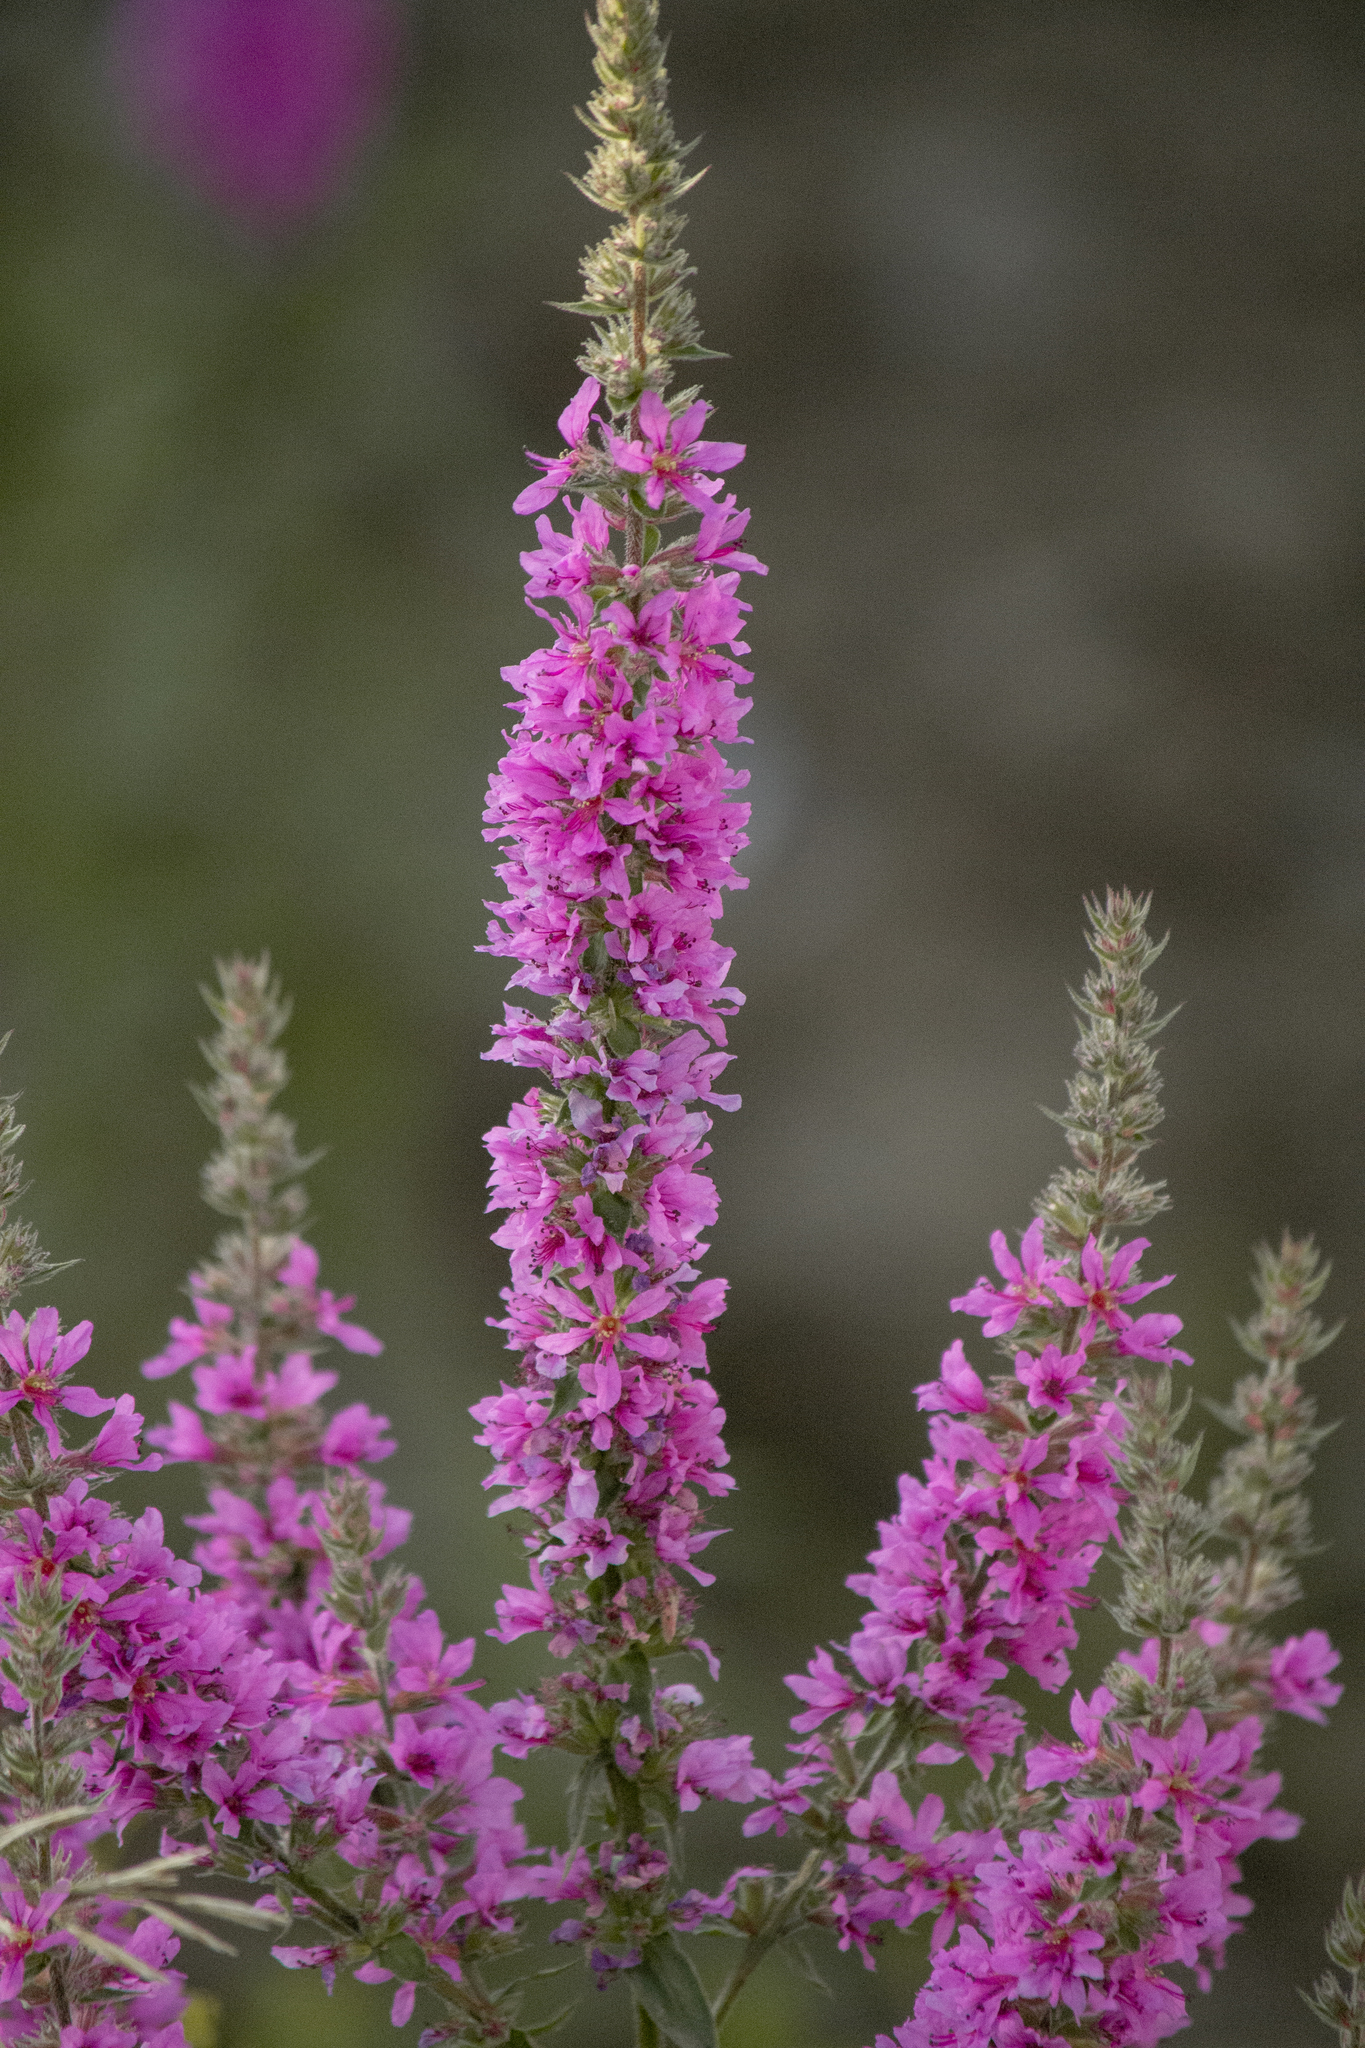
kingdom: Plantae
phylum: Tracheophyta
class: Magnoliopsida
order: Myrtales
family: Lythraceae
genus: Lythrum
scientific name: Lythrum salicaria
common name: Purple loosestrife
